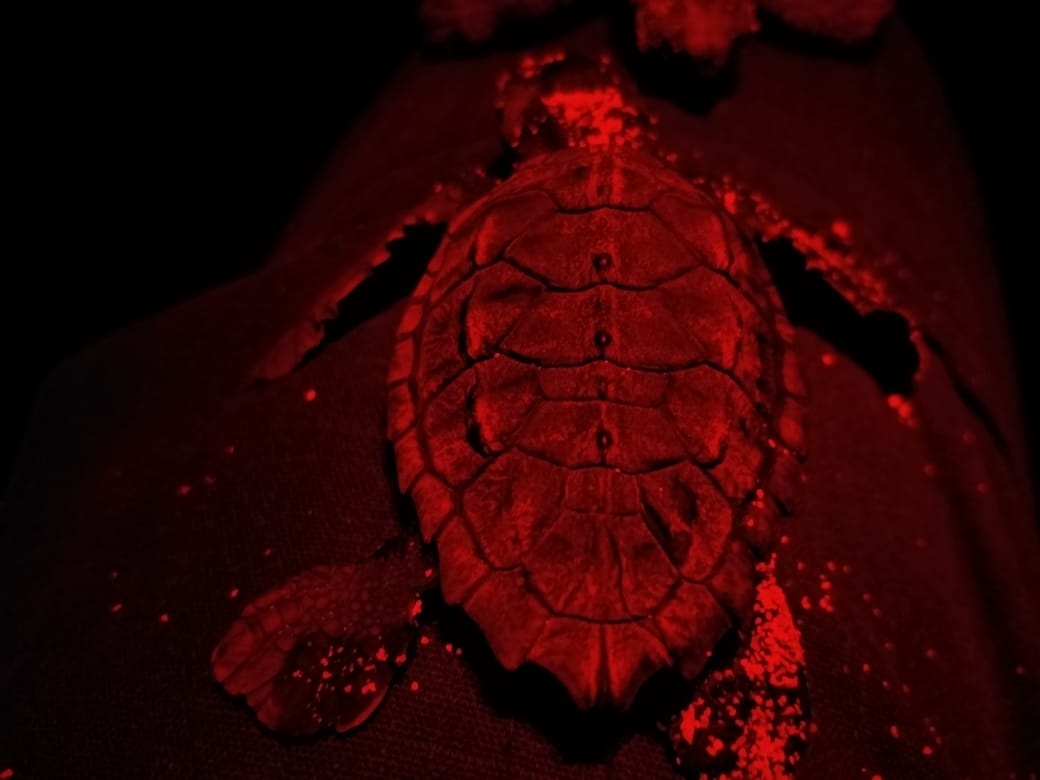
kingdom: Animalia
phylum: Chordata
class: Testudines
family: Cheloniidae
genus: Eretmochelys
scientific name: Eretmochelys imbricata
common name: Hawksbill turtle
